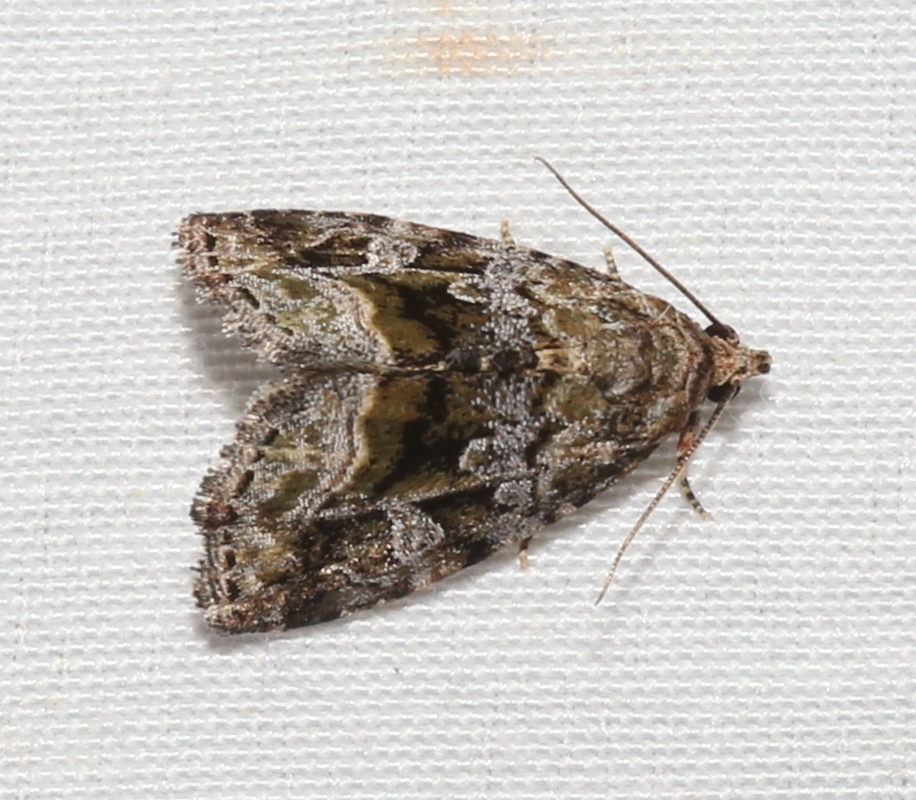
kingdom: Animalia
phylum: Arthropoda
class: Insecta
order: Lepidoptera
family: Noctuidae
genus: Protodeltote
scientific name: Protodeltote muscosula
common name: Large mossy glyph
